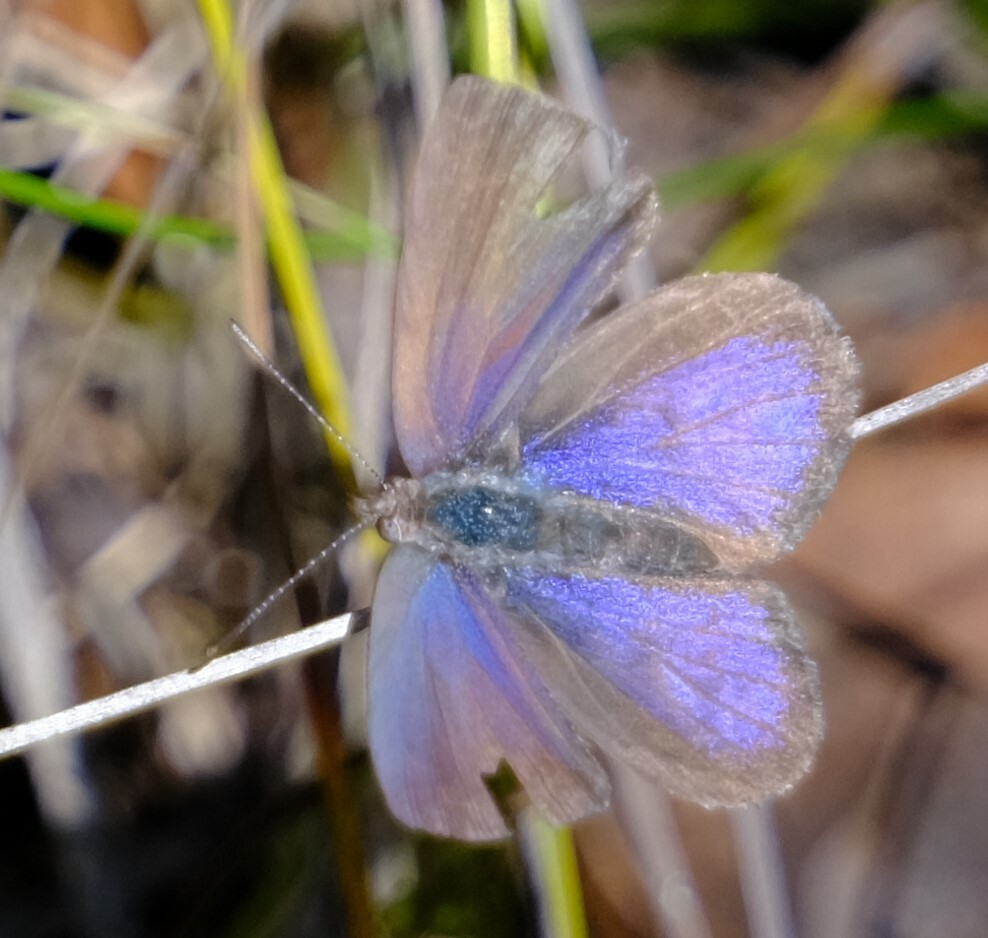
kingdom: Animalia
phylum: Arthropoda
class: Insecta
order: Lepidoptera
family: Lycaenidae
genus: Candalides
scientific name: Candalides
